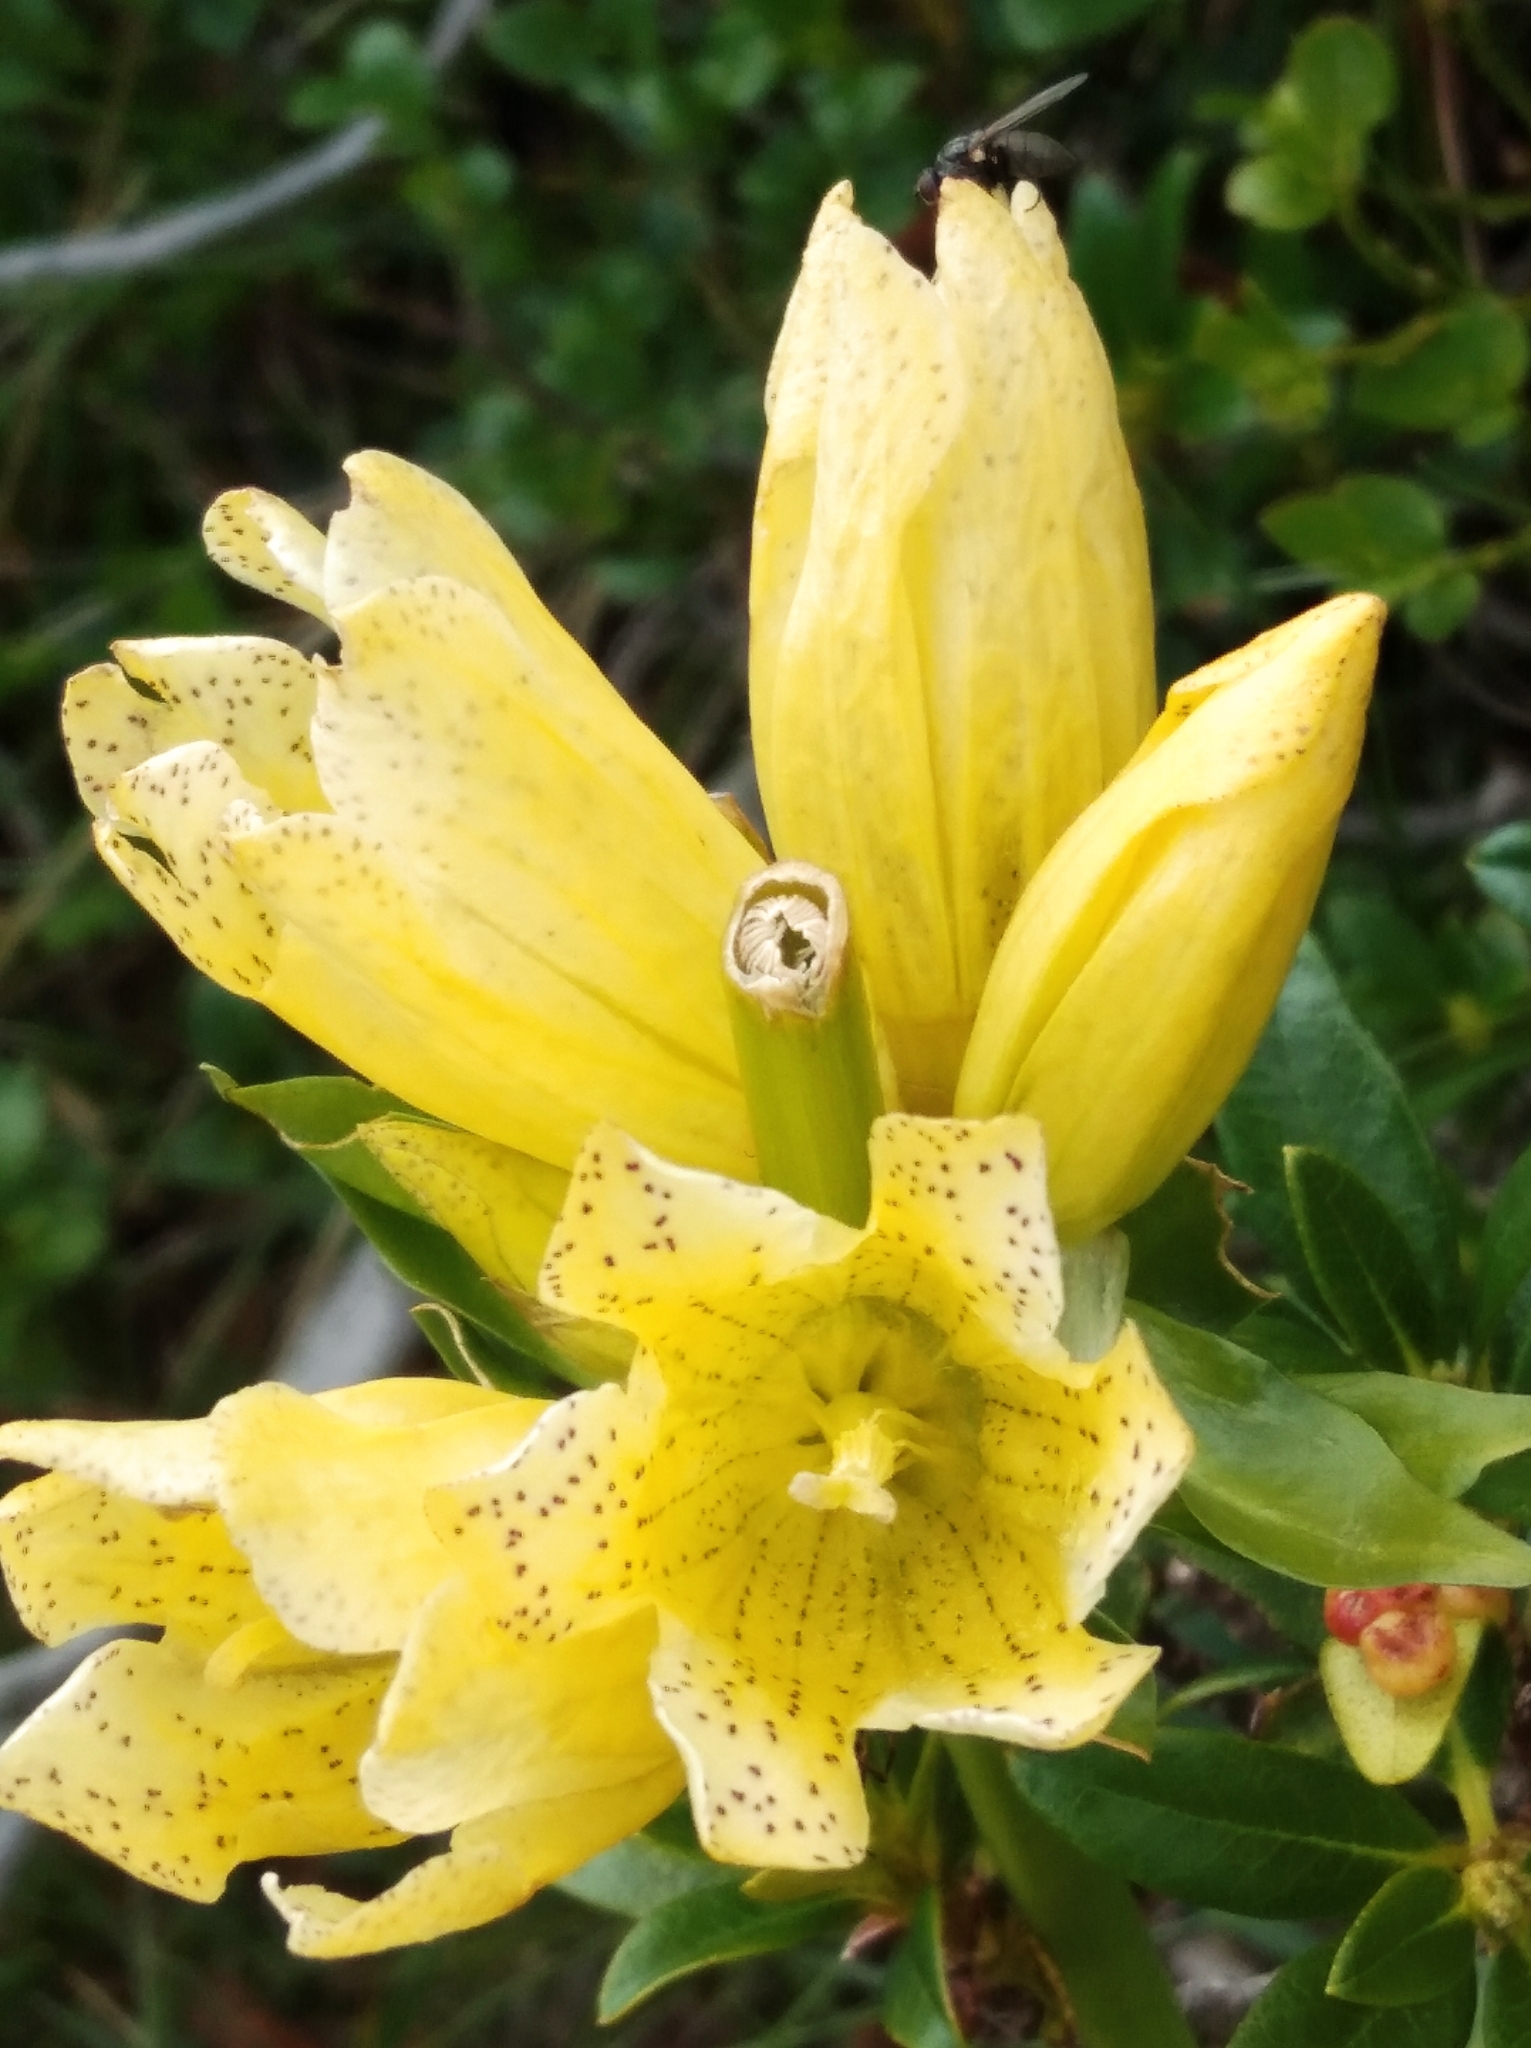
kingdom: Plantae
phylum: Tracheophyta
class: Magnoliopsida
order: Gentianales
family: Gentianaceae
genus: Gentiana
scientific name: Gentiana burseri
